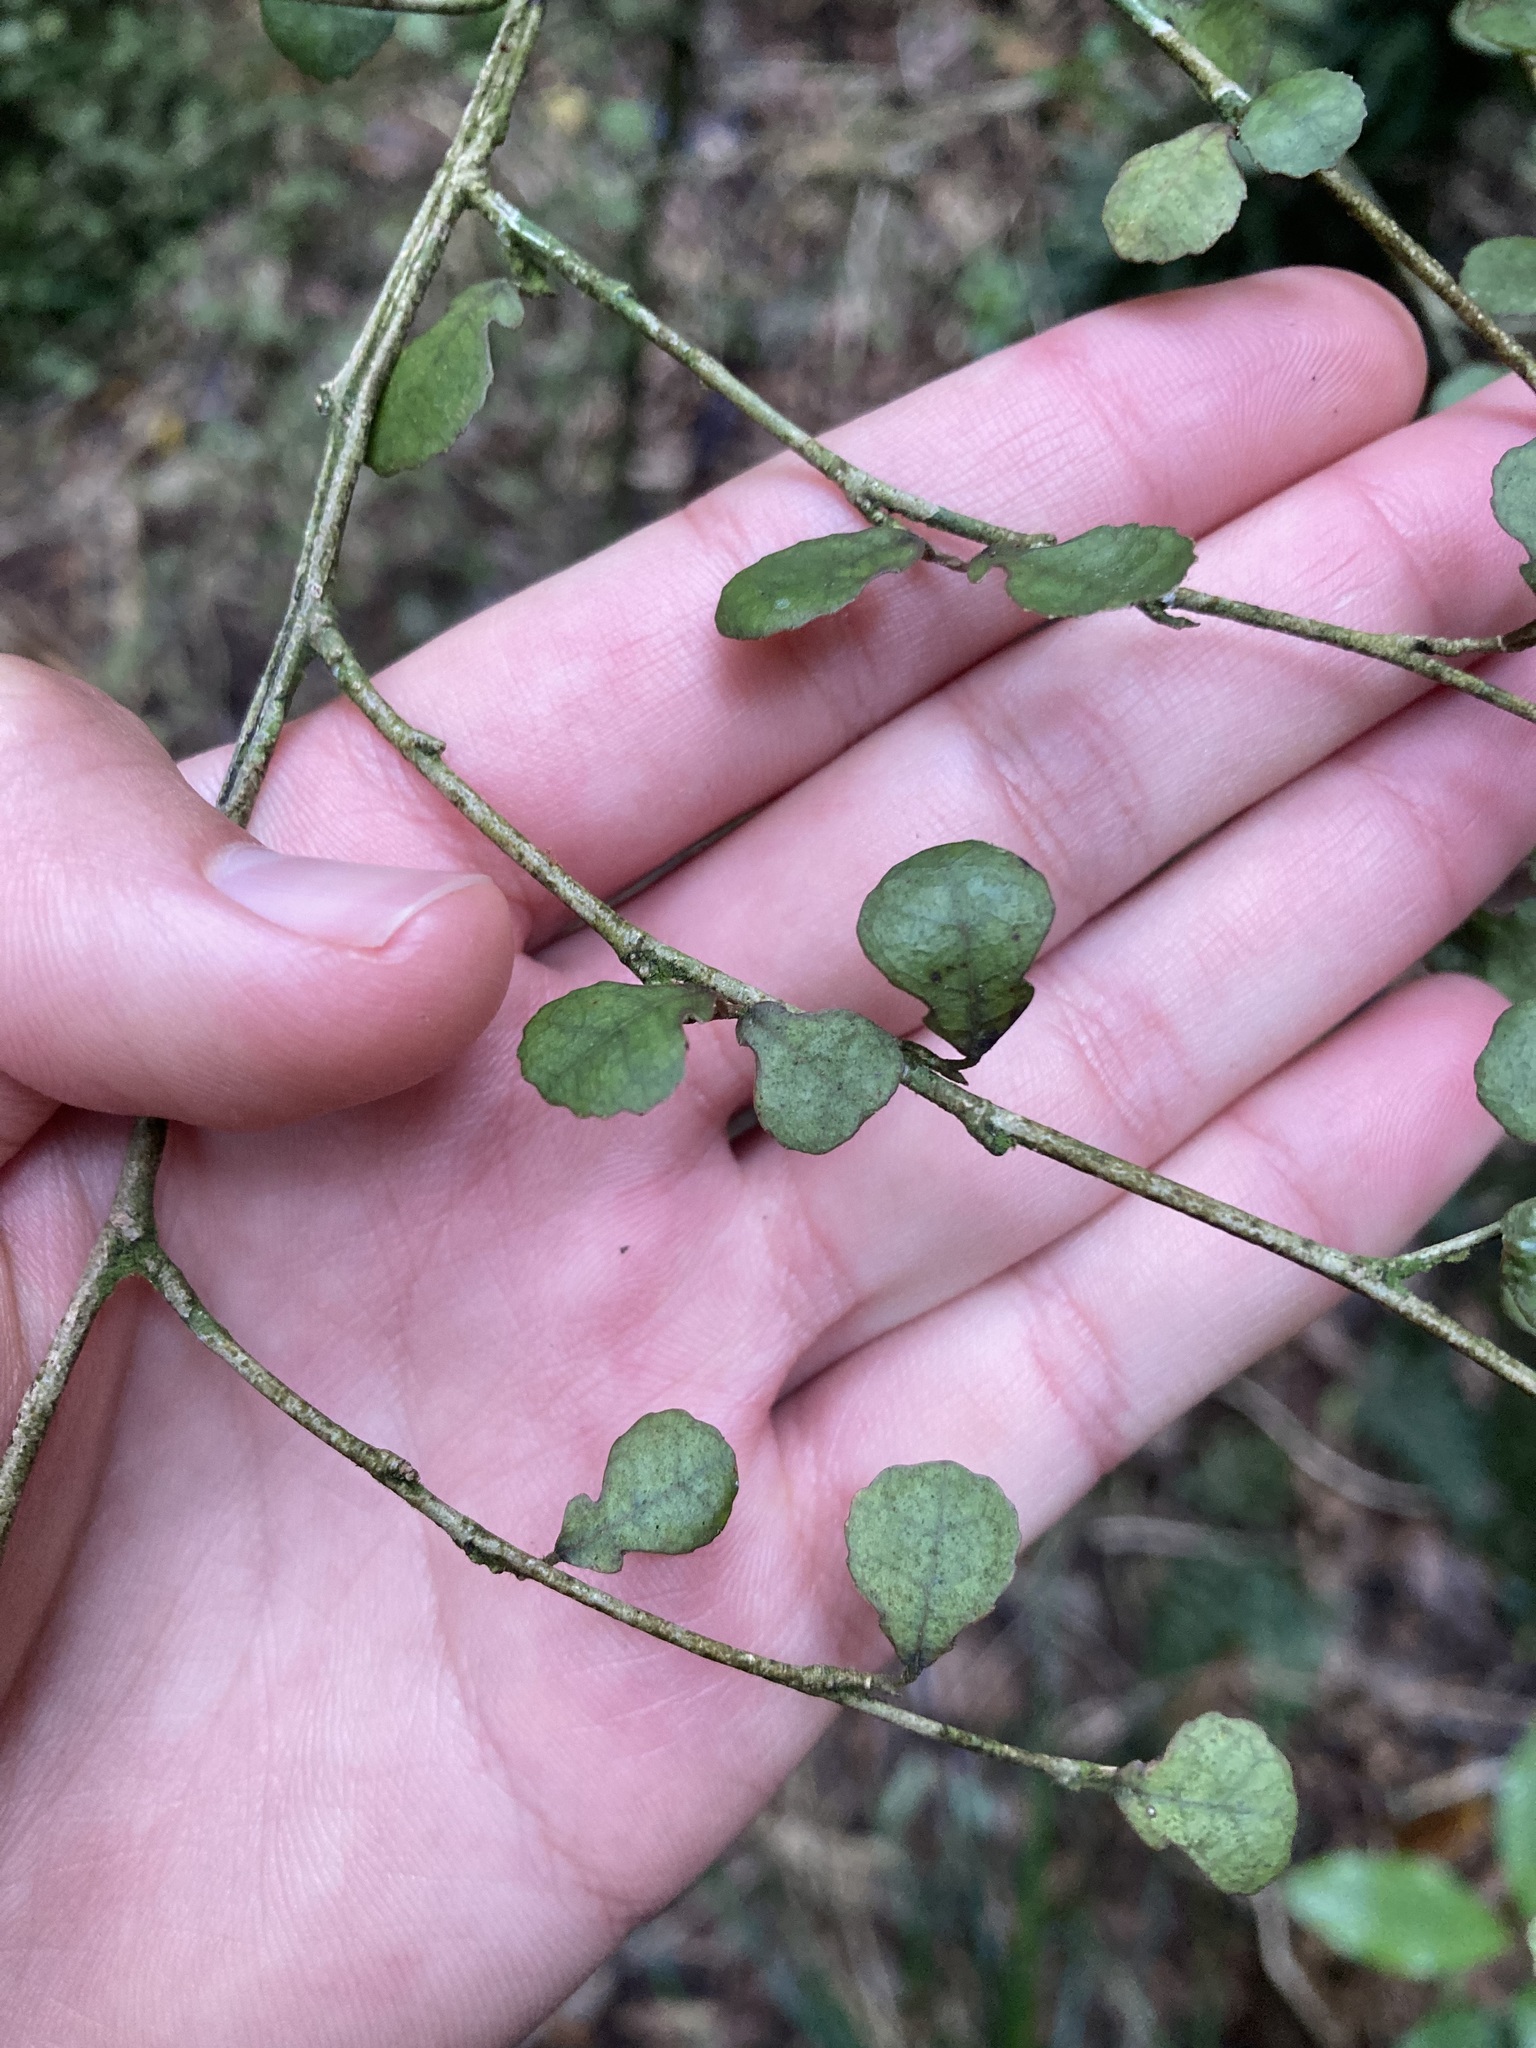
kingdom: Plantae
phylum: Tracheophyta
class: Magnoliopsida
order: Rosales
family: Moraceae
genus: Paratrophis
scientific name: Paratrophis microphylla
